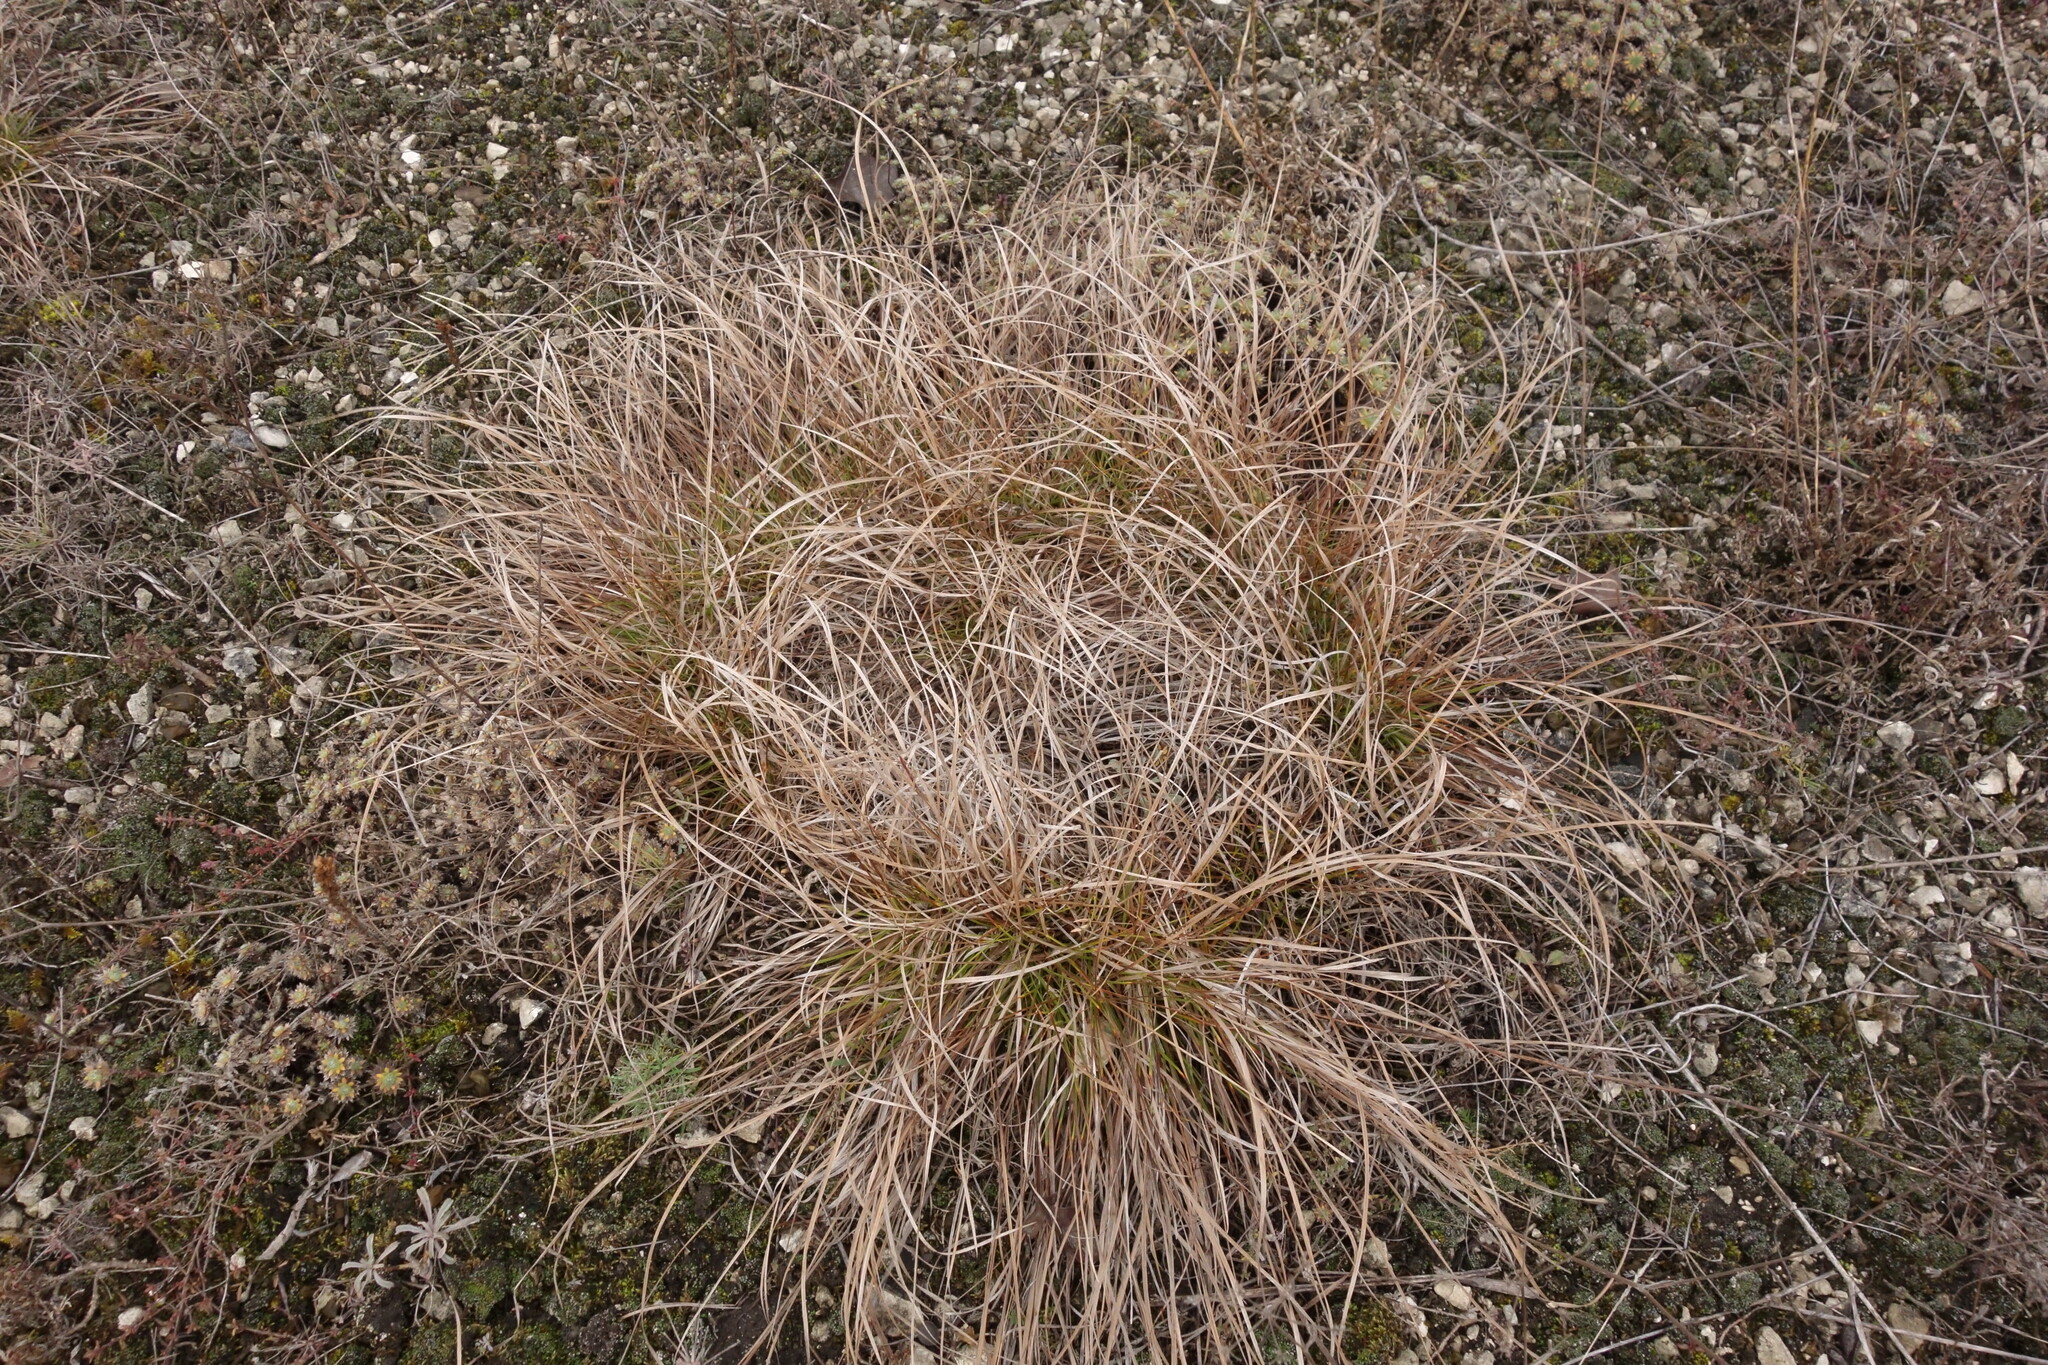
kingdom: Plantae
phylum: Tracheophyta
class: Liliopsida
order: Poales
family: Cyperaceae
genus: Carex
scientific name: Carex humilis
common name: Dwarf sedge
